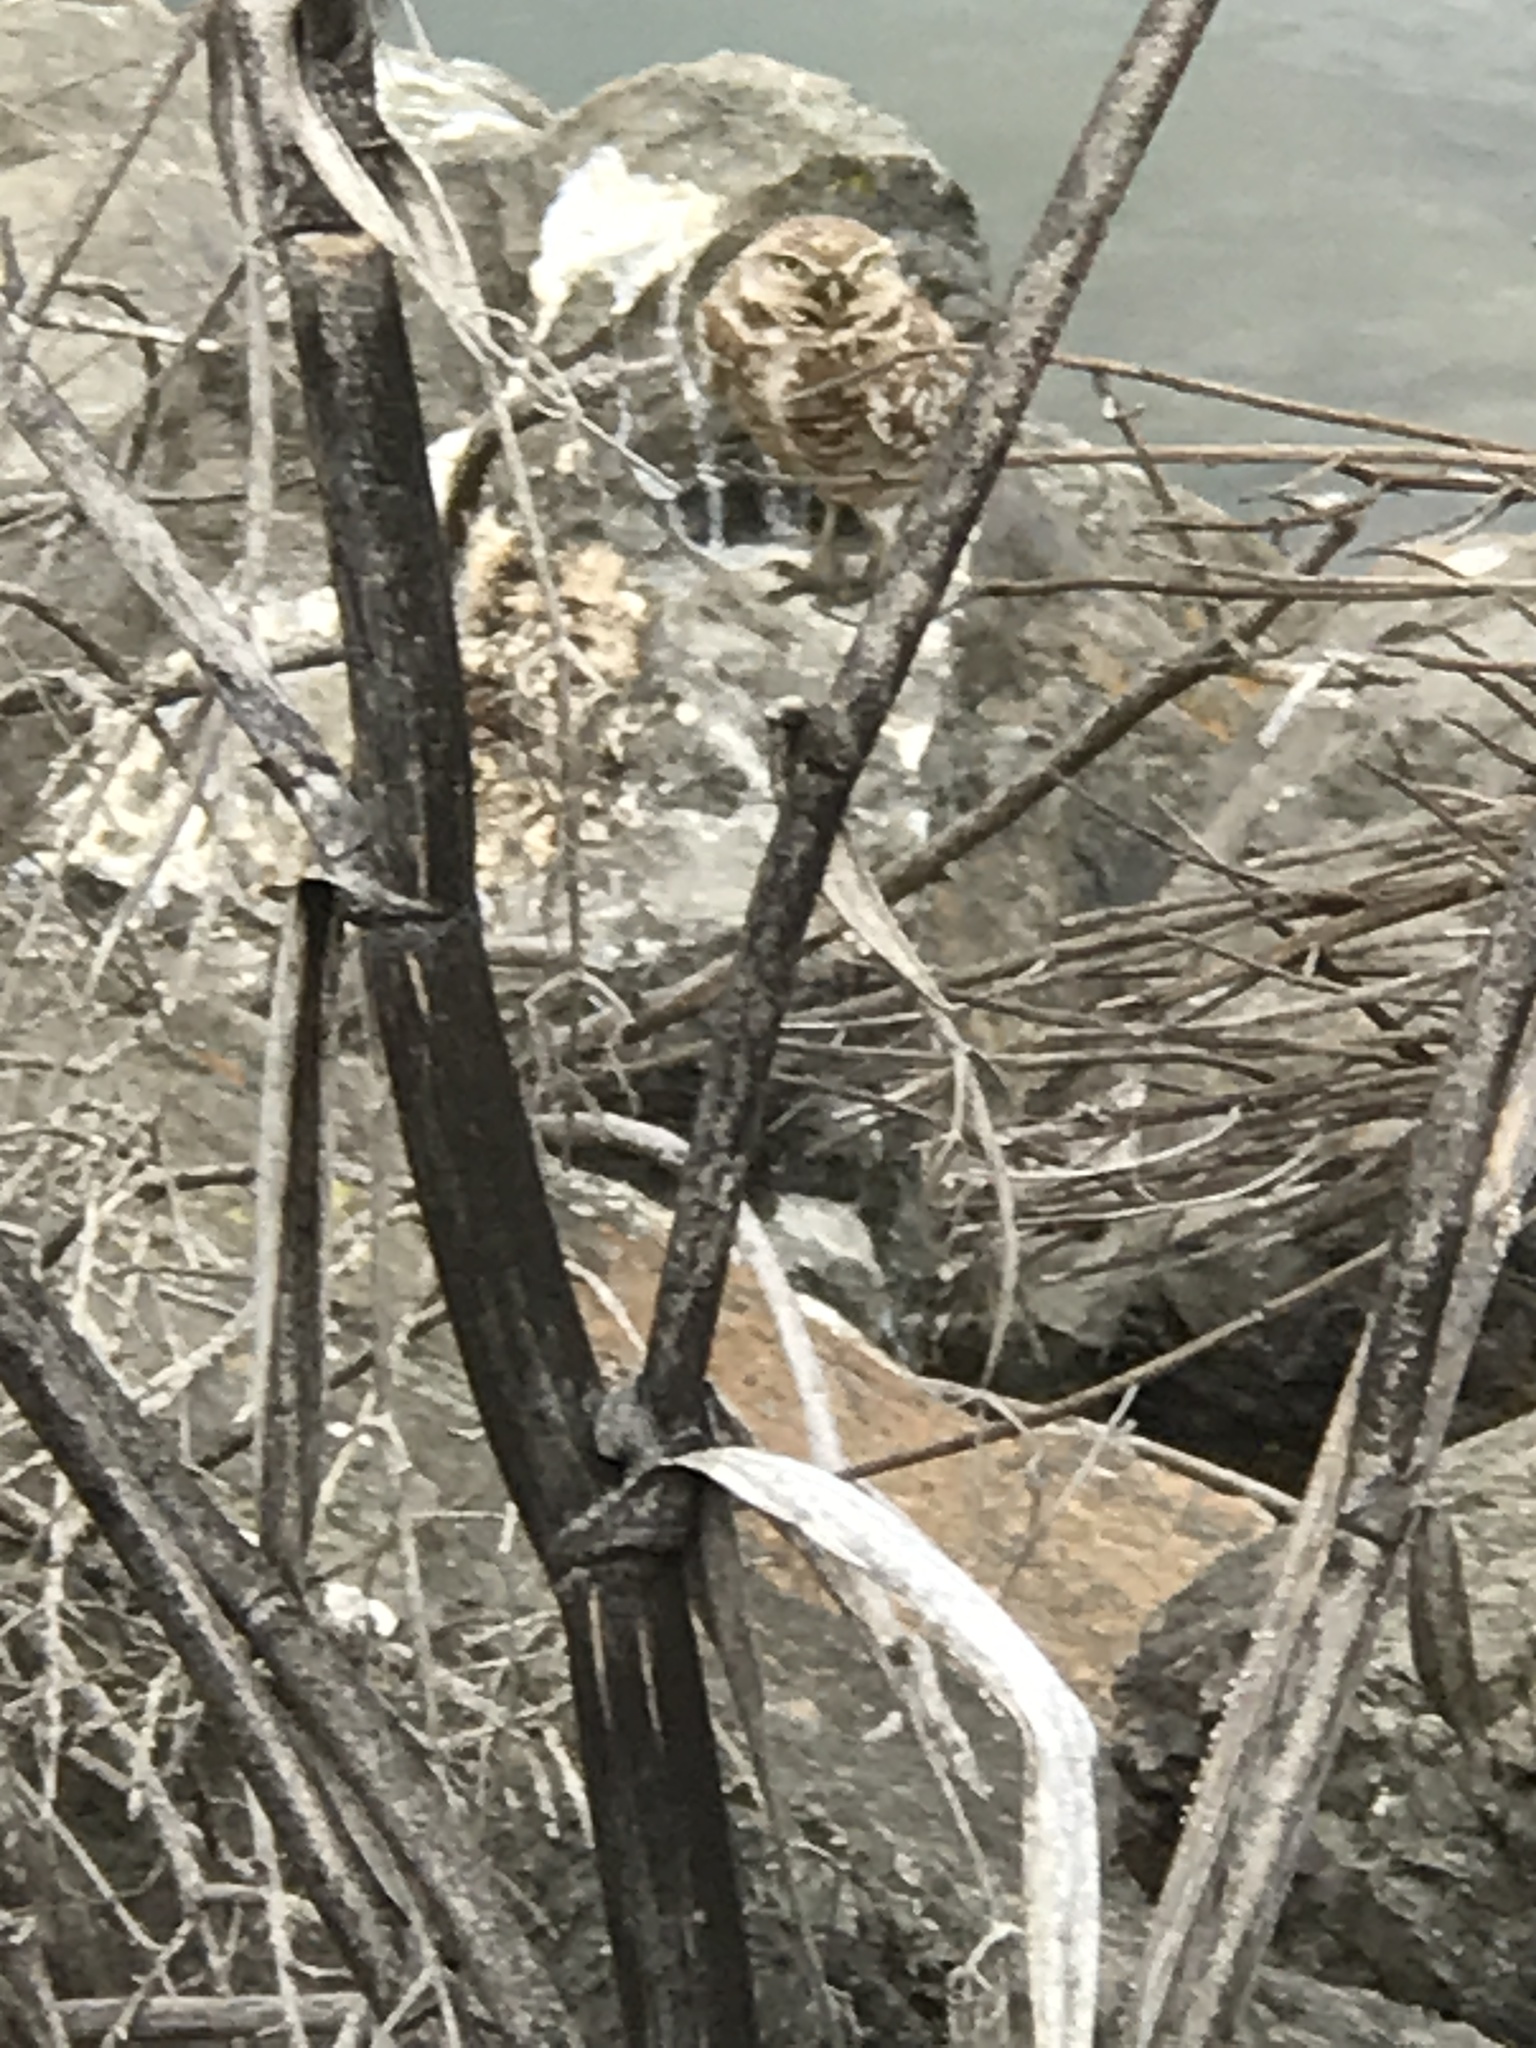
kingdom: Animalia
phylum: Chordata
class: Aves
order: Strigiformes
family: Strigidae
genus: Athene
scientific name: Athene cunicularia
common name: Burrowing owl
